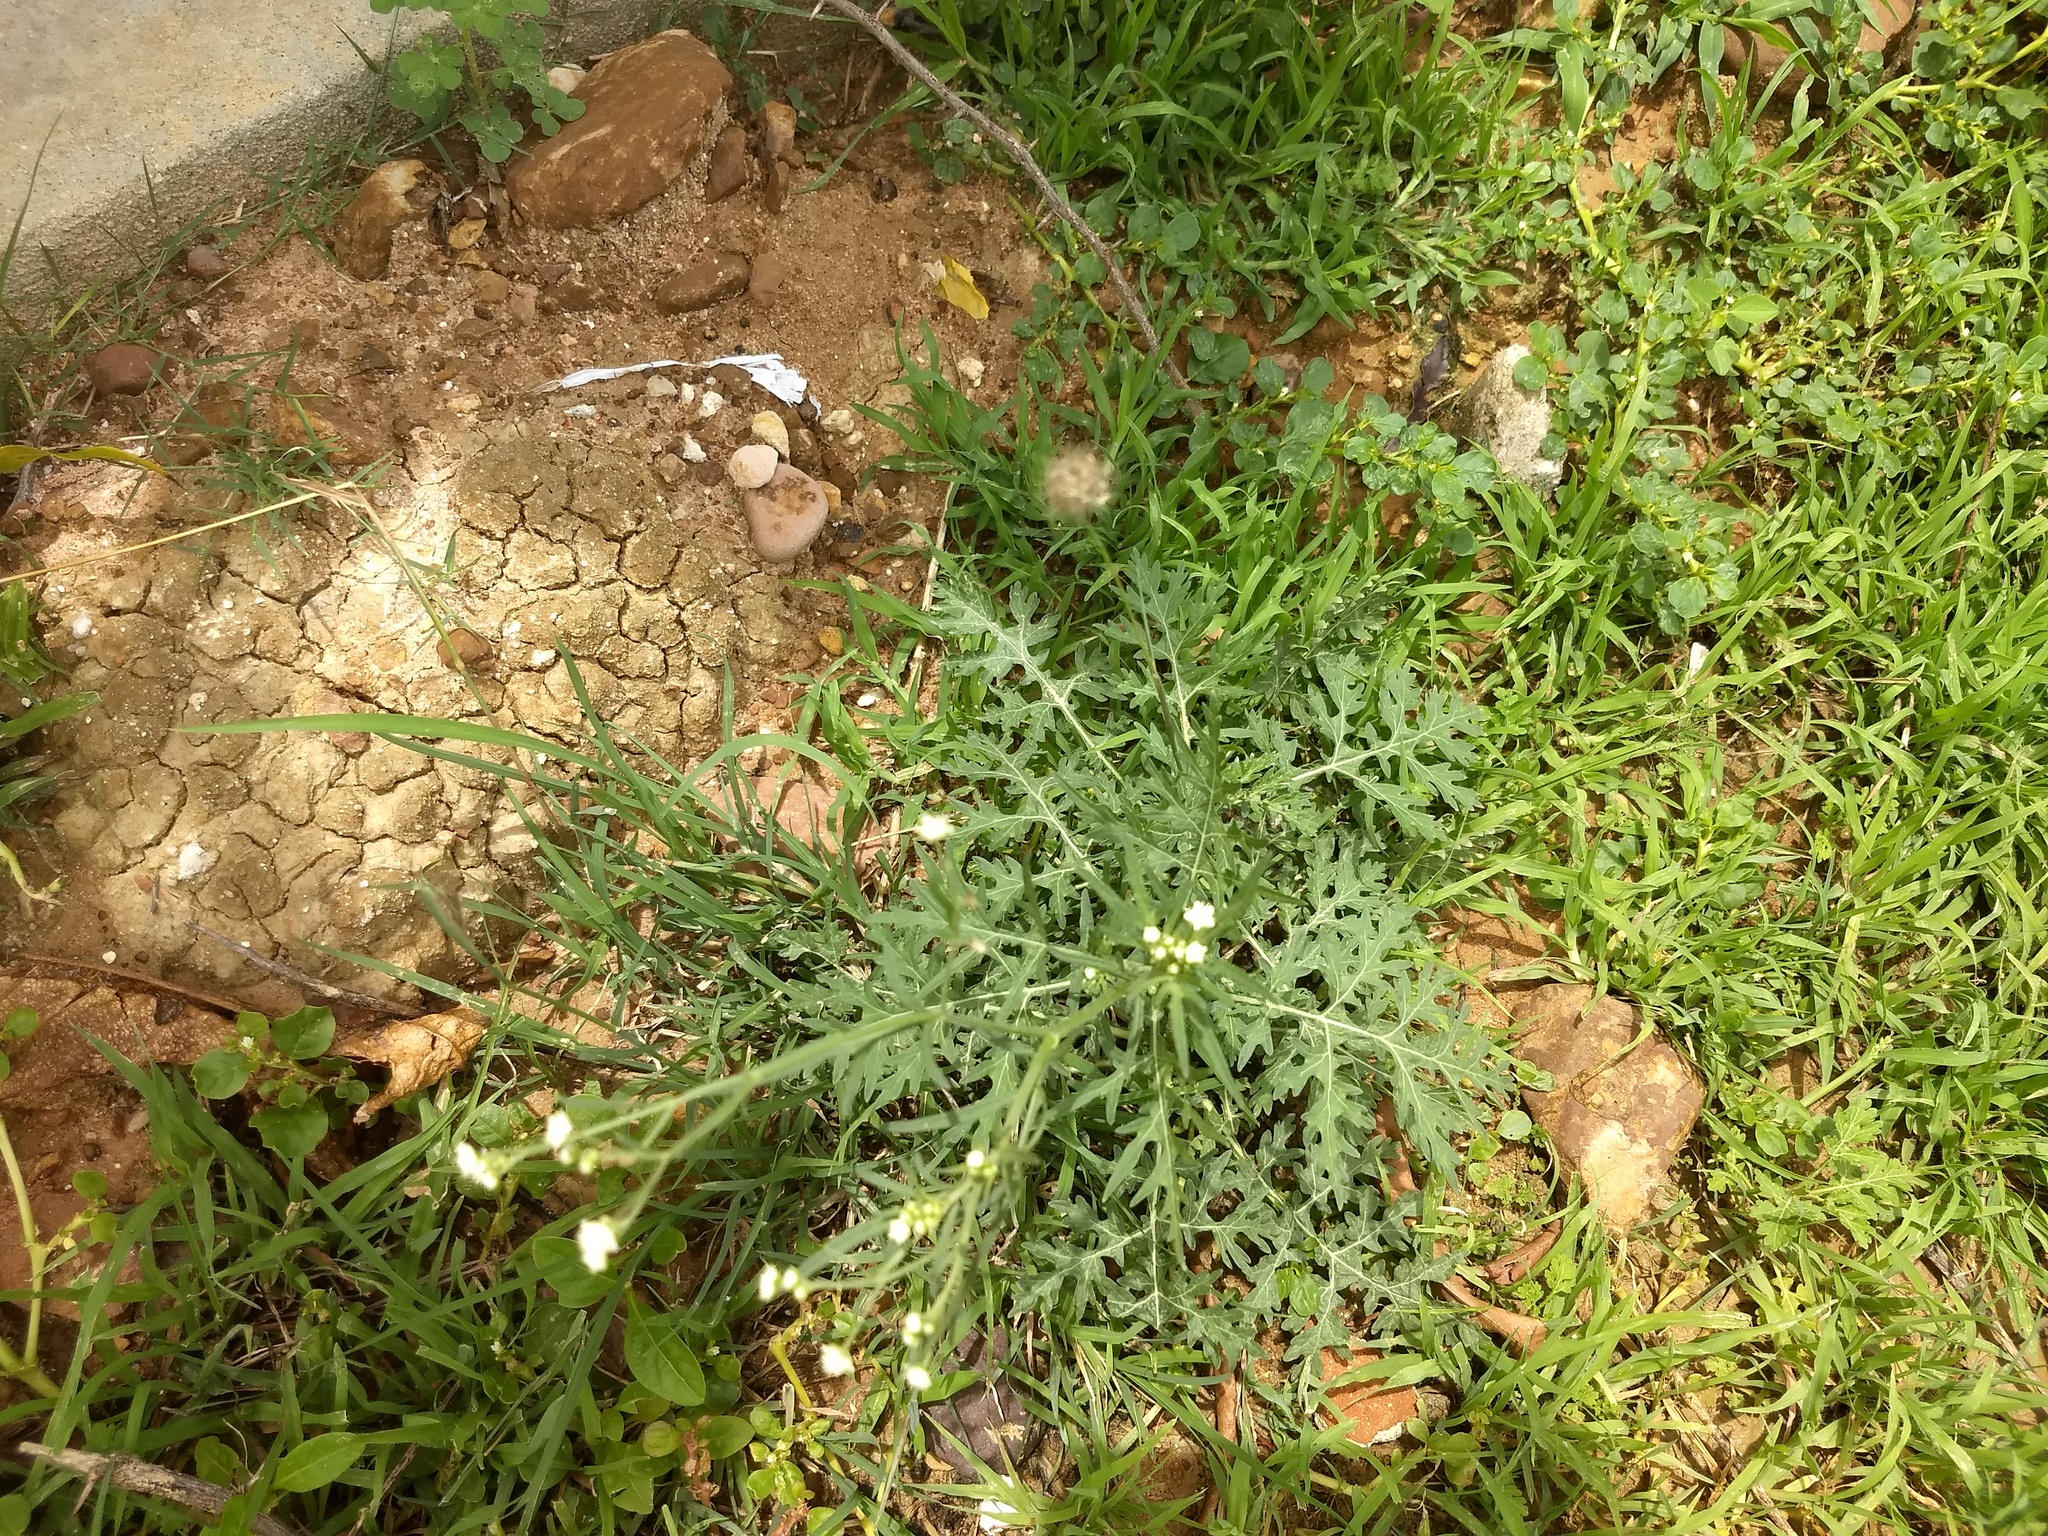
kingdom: Plantae
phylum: Tracheophyta
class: Magnoliopsida
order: Asterales
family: Asteraceae
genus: Parthenium
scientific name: Parthenium hysterophorus
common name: Santa maria feverfew
